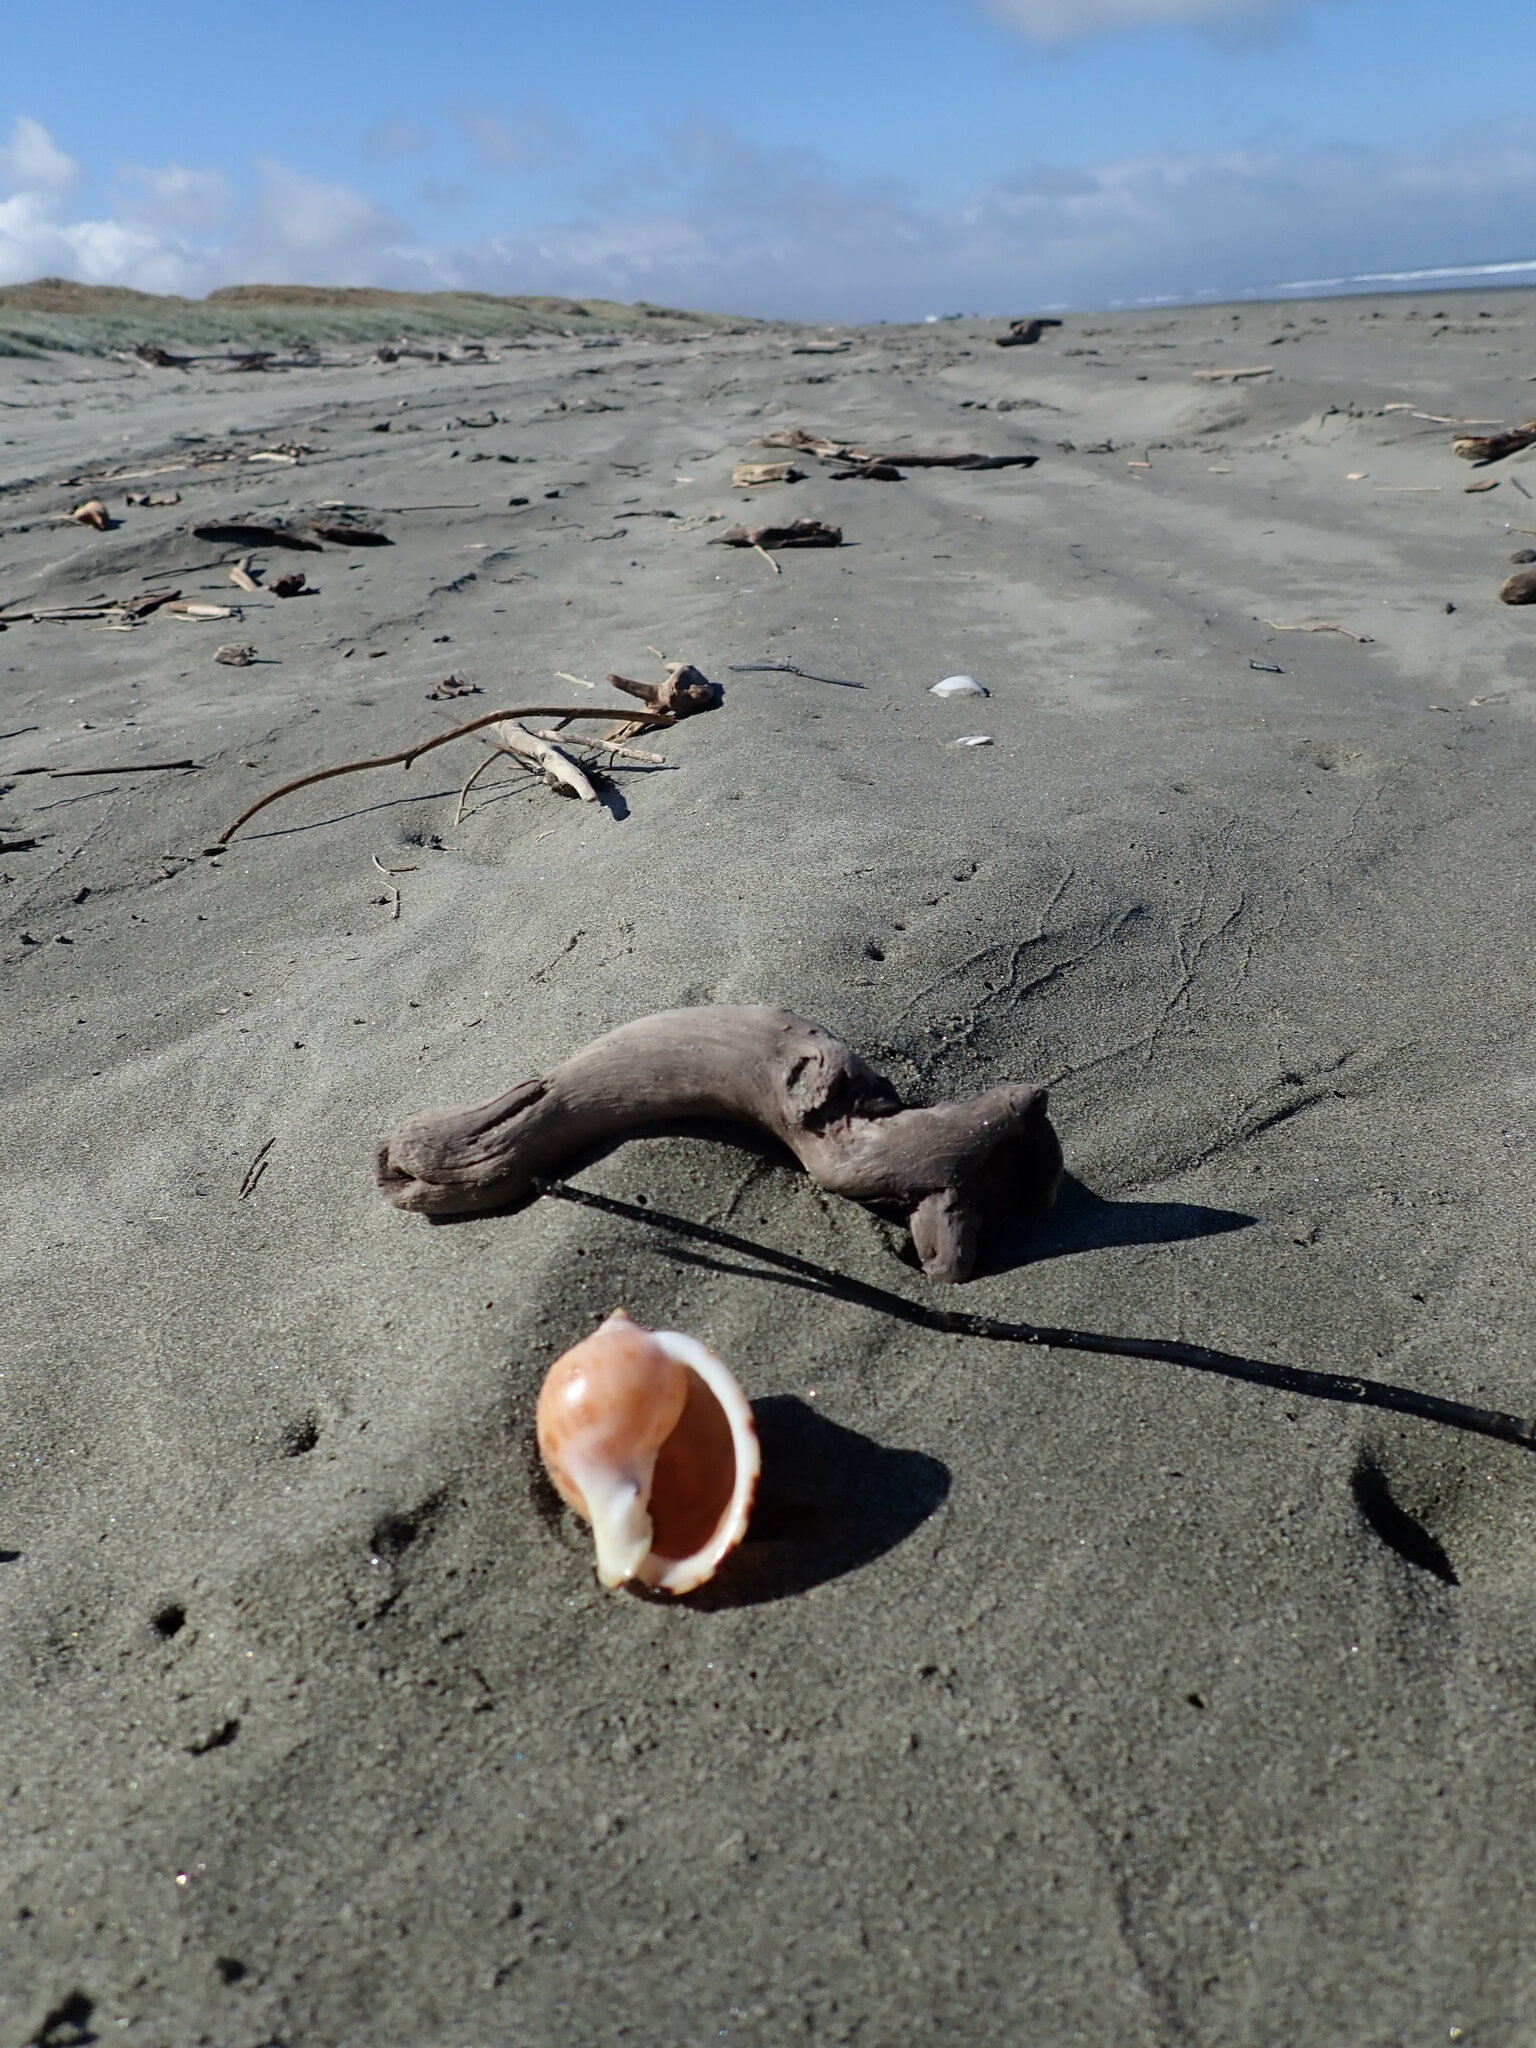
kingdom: Animalia
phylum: Mollusca
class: Gastropoda
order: Littorinimorpha
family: Cassidae
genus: Semicassis
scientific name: Semicassis pyrum
